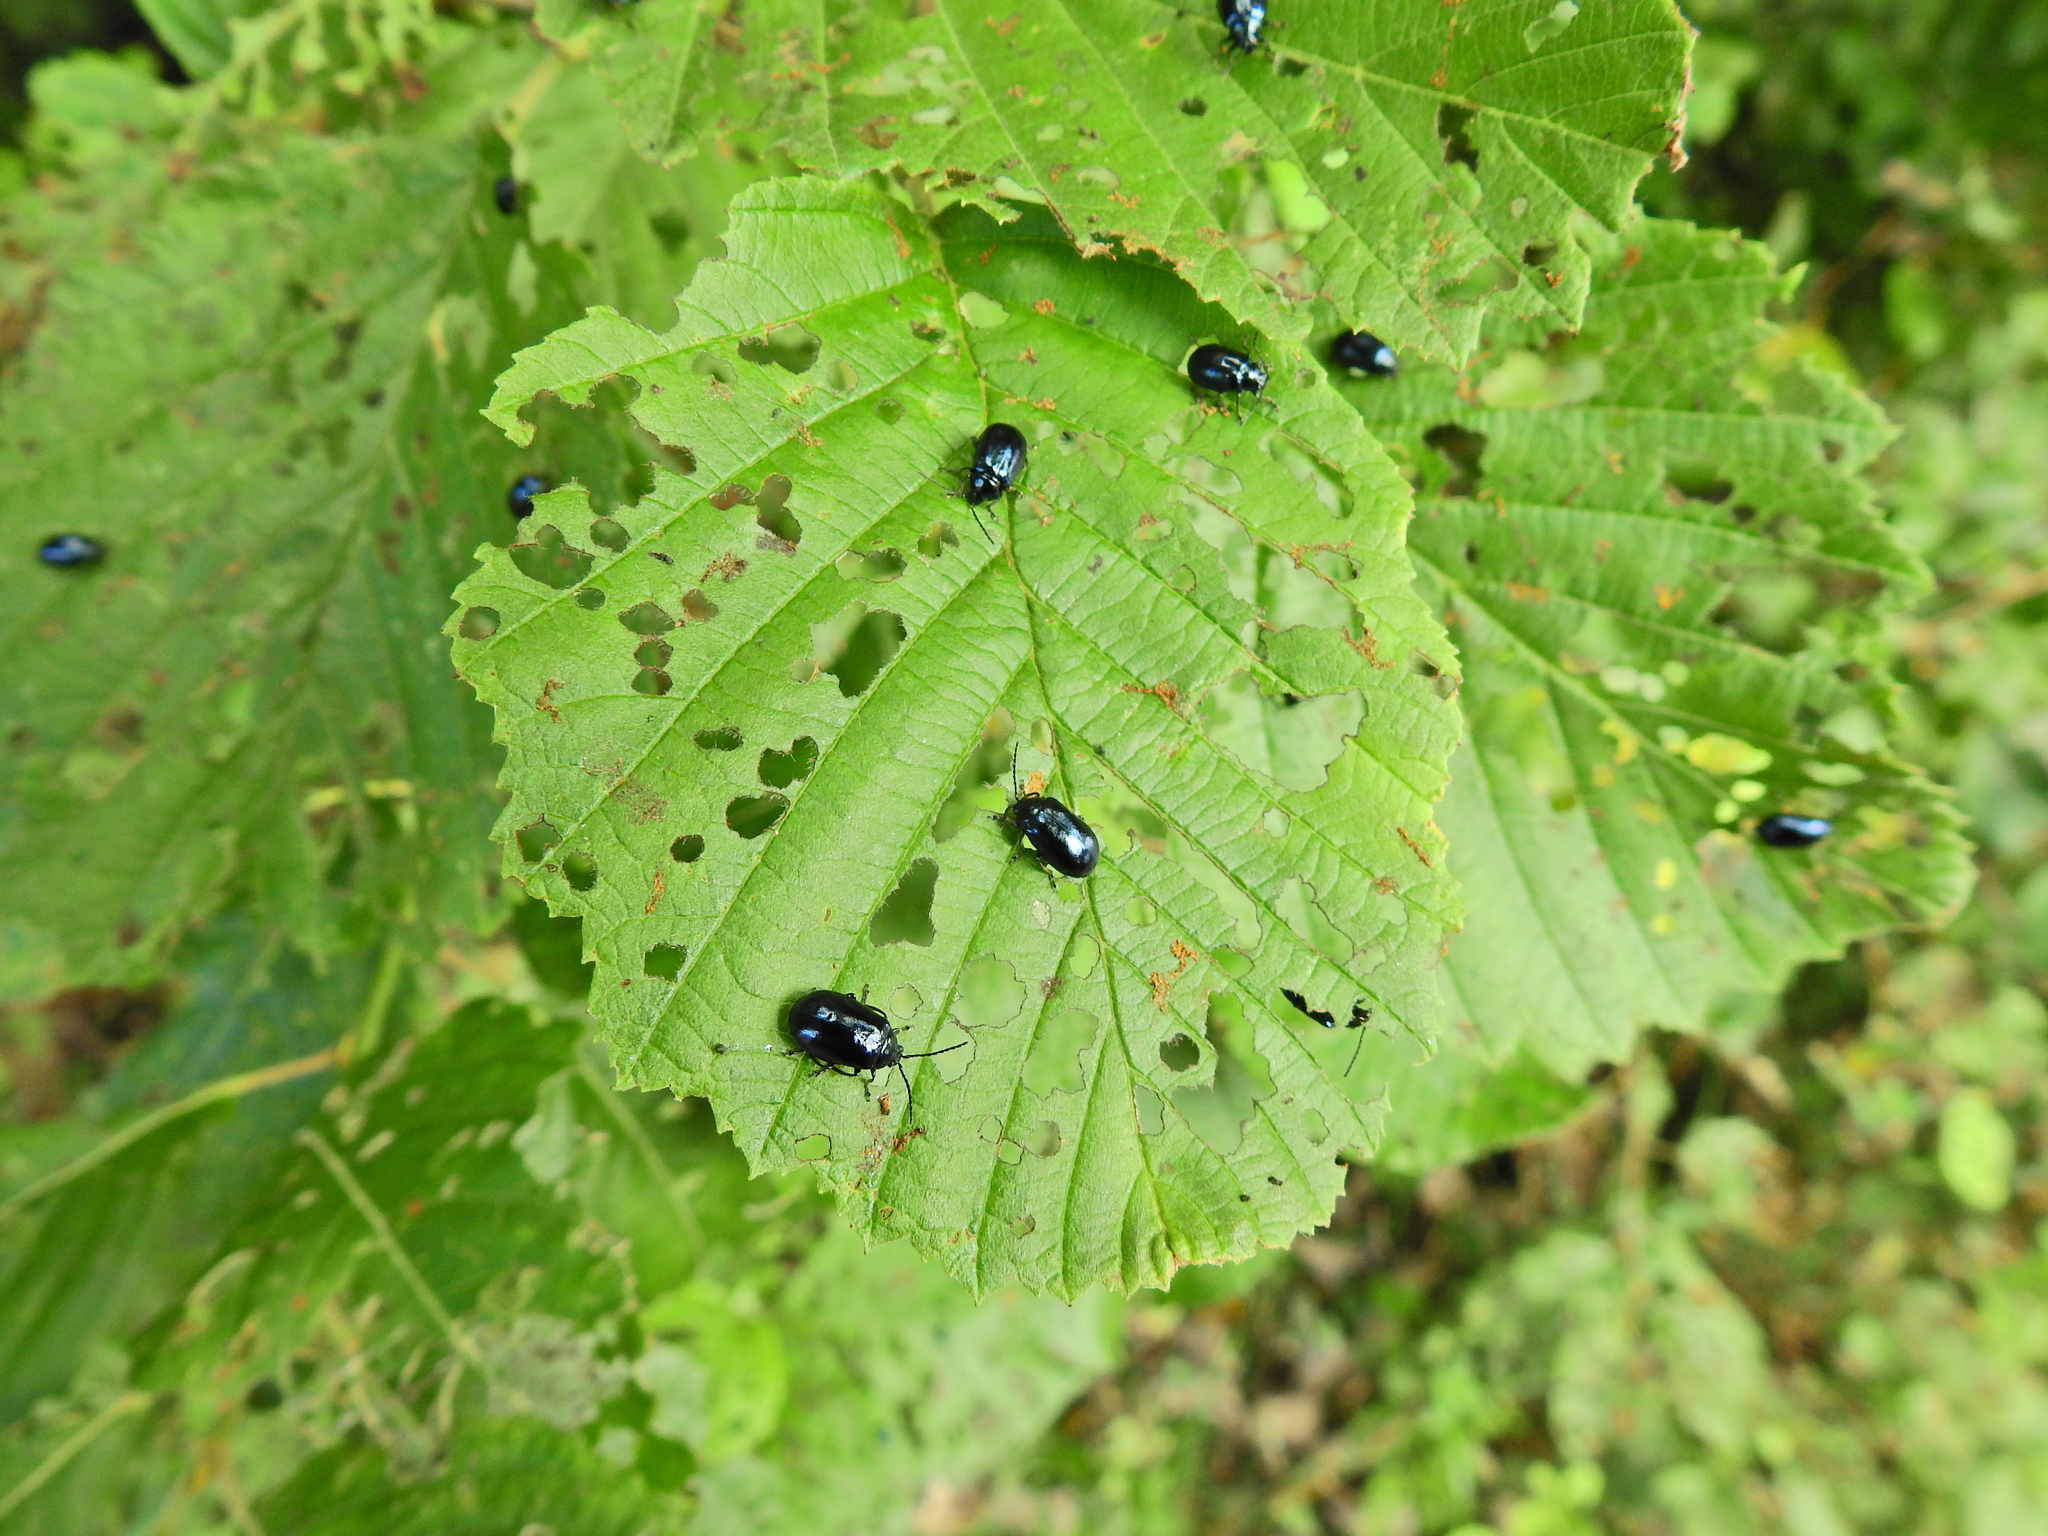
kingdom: Animalia
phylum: Arthropoda
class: Insecta
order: Coleoptera
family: Chrysomelidae
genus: Agelastica
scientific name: Agelastica alni
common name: Alder leaf beetle
